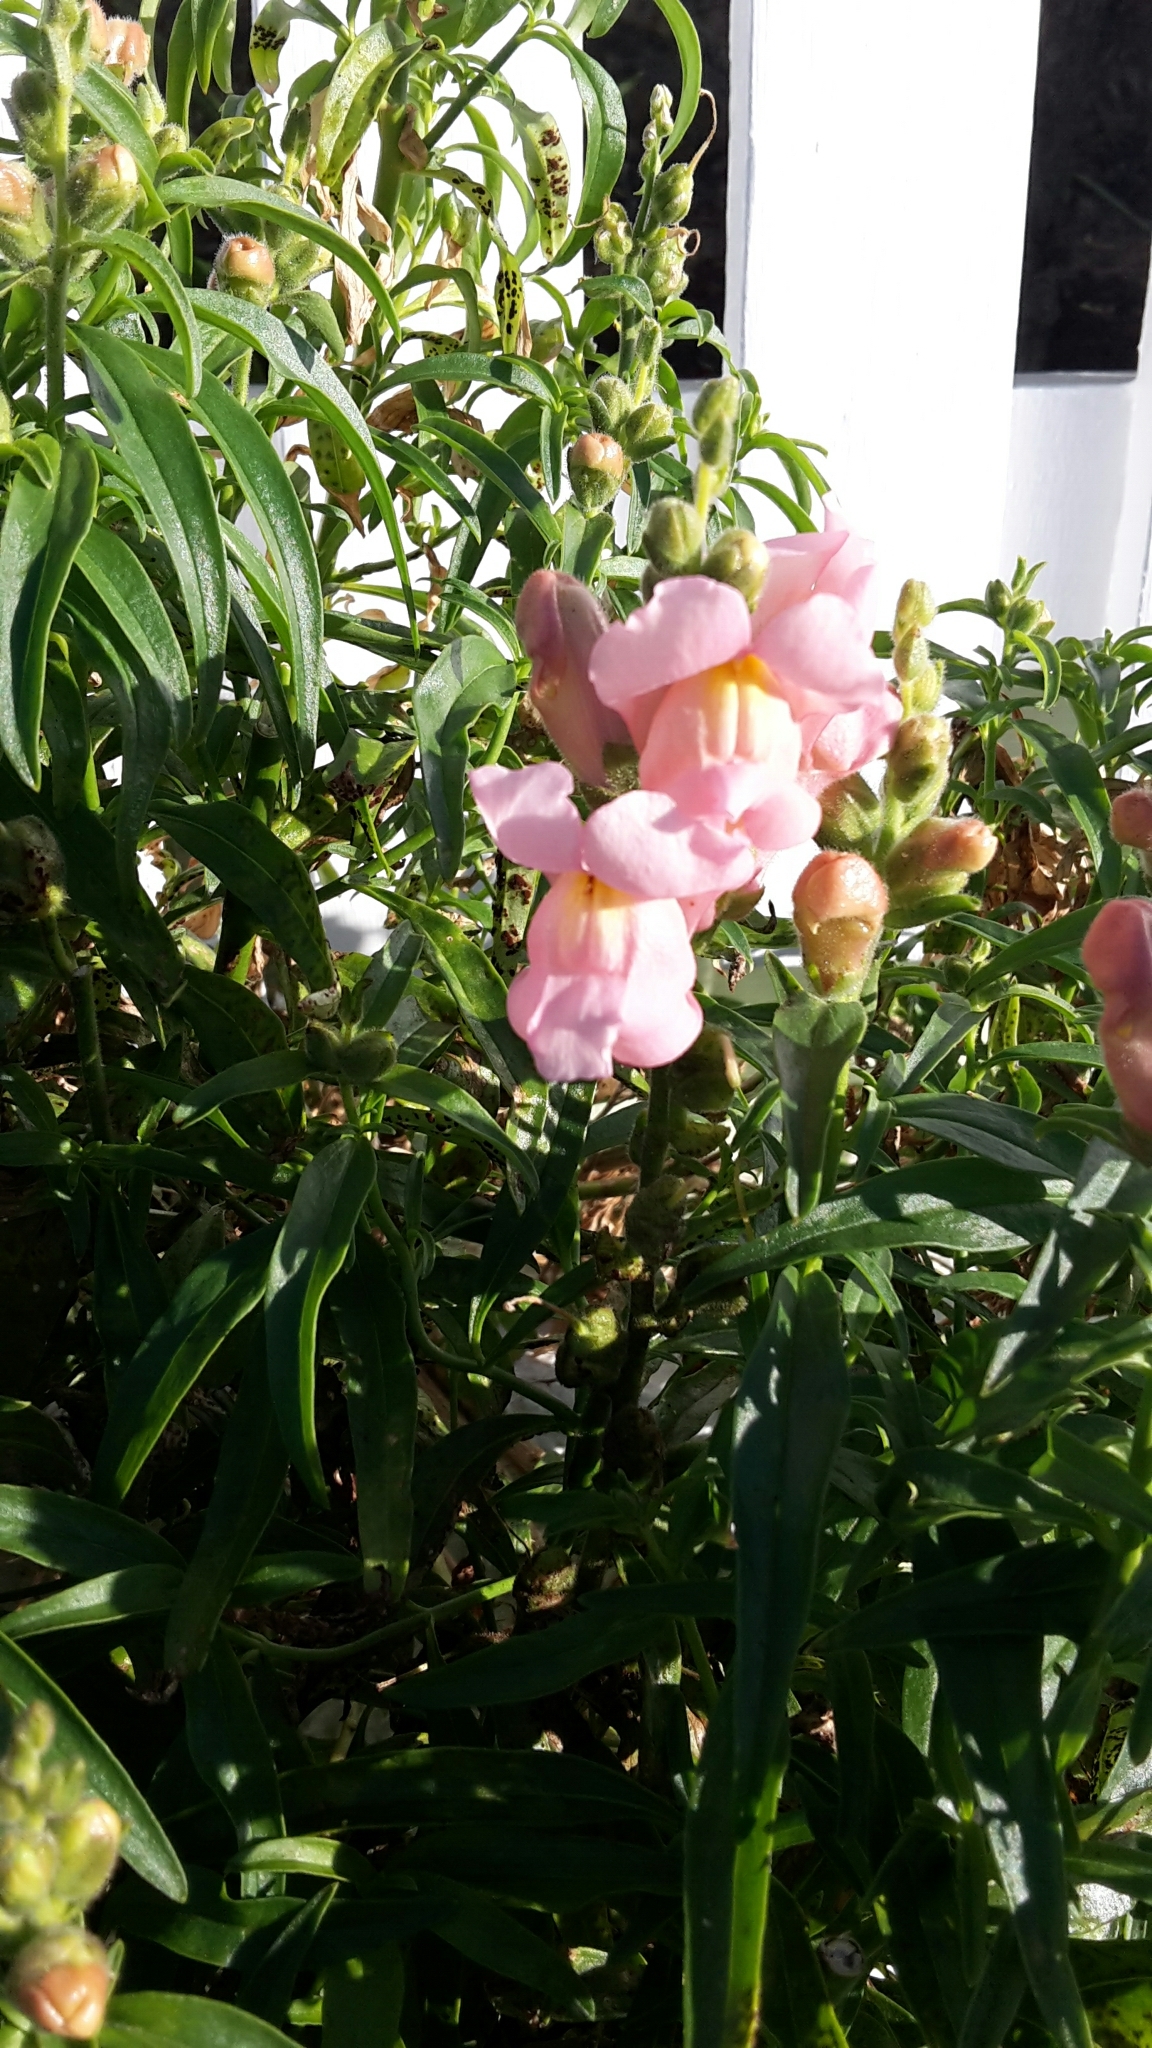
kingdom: Plantae
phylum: Tracheophyta
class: Magnoliopsida
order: Lamiales
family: Plantaginaceae
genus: Antirrhinum
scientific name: Antirrhinum majus
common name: Snapdragon
